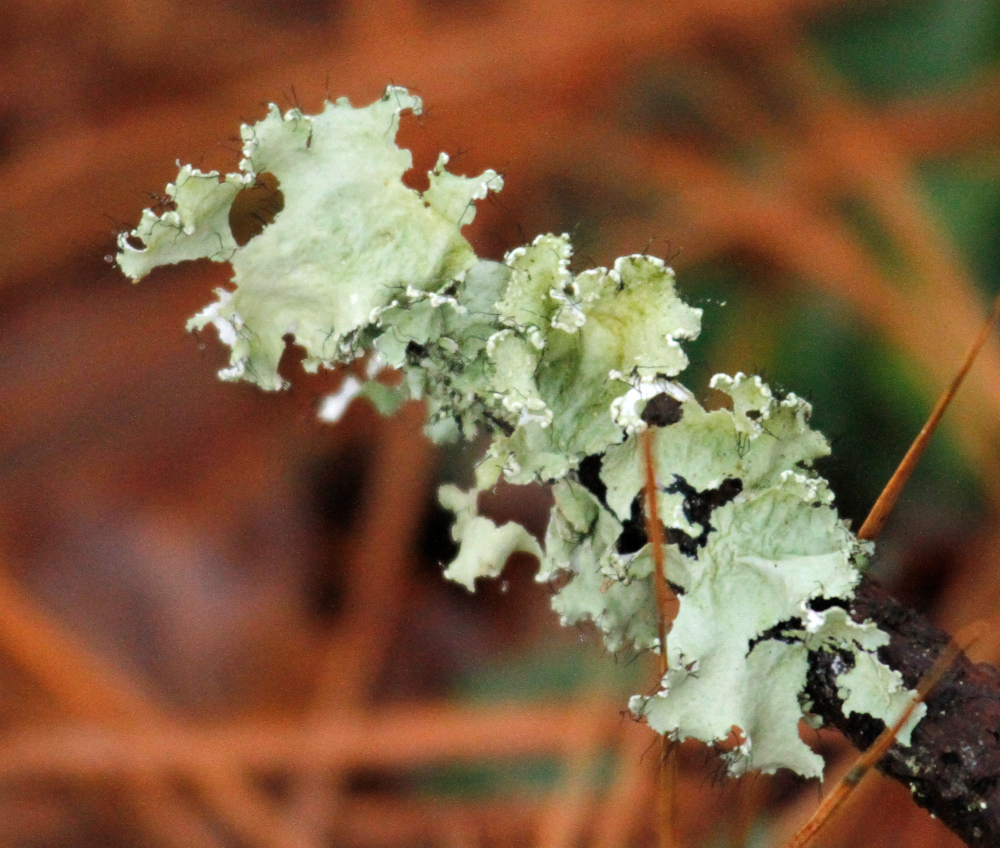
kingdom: Fungi
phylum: Ascomycota
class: Lecanoromycetes
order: Lecanorales
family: Parmeliaceae
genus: Parmotrema
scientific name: Parmotrema hypotropum
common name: Powdered ruffle lichen
